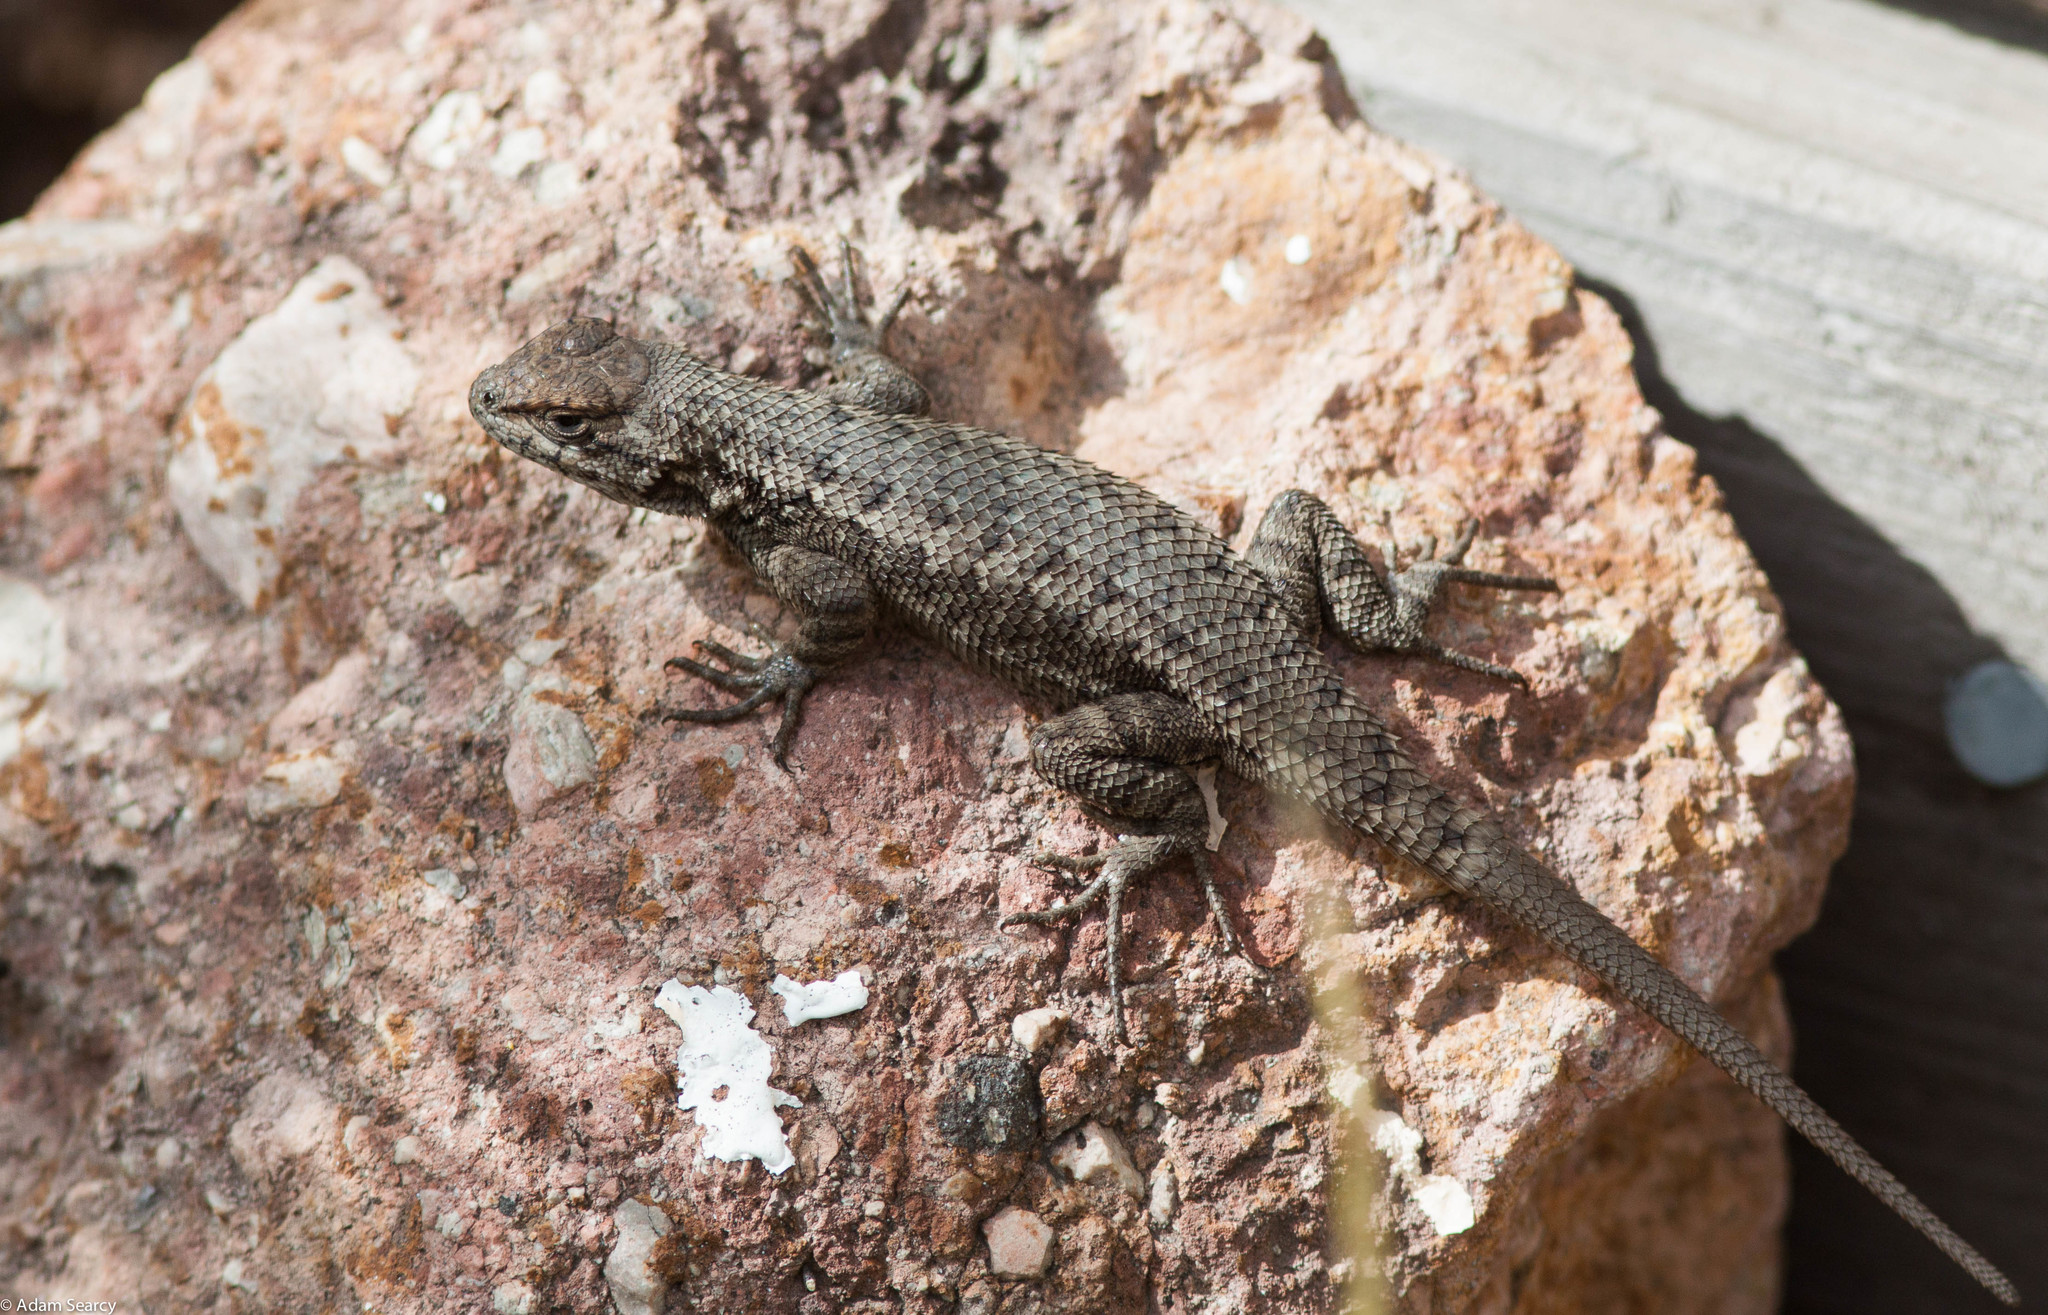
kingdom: Animalia
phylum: Chordata
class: Squamata
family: Phrynosomatidae
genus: Sceloporus
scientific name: Sceloporus becki
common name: Island fence lizard
